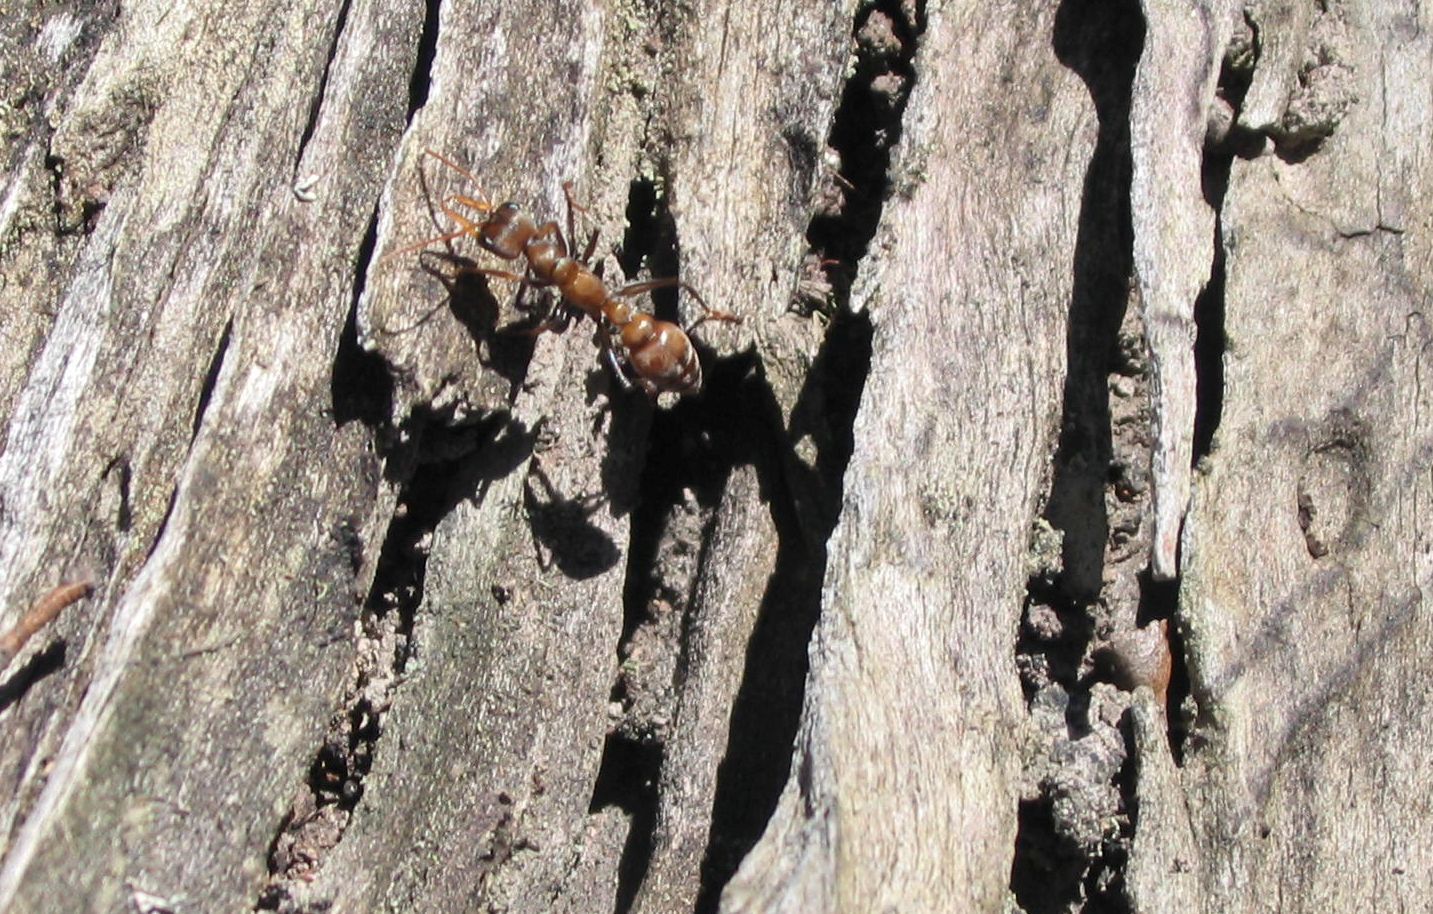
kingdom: Animalia
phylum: Arthropoda
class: Insecta
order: Hymenoptera
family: Formicidae
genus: Myrmecia
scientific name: Myrmecia pilosula
